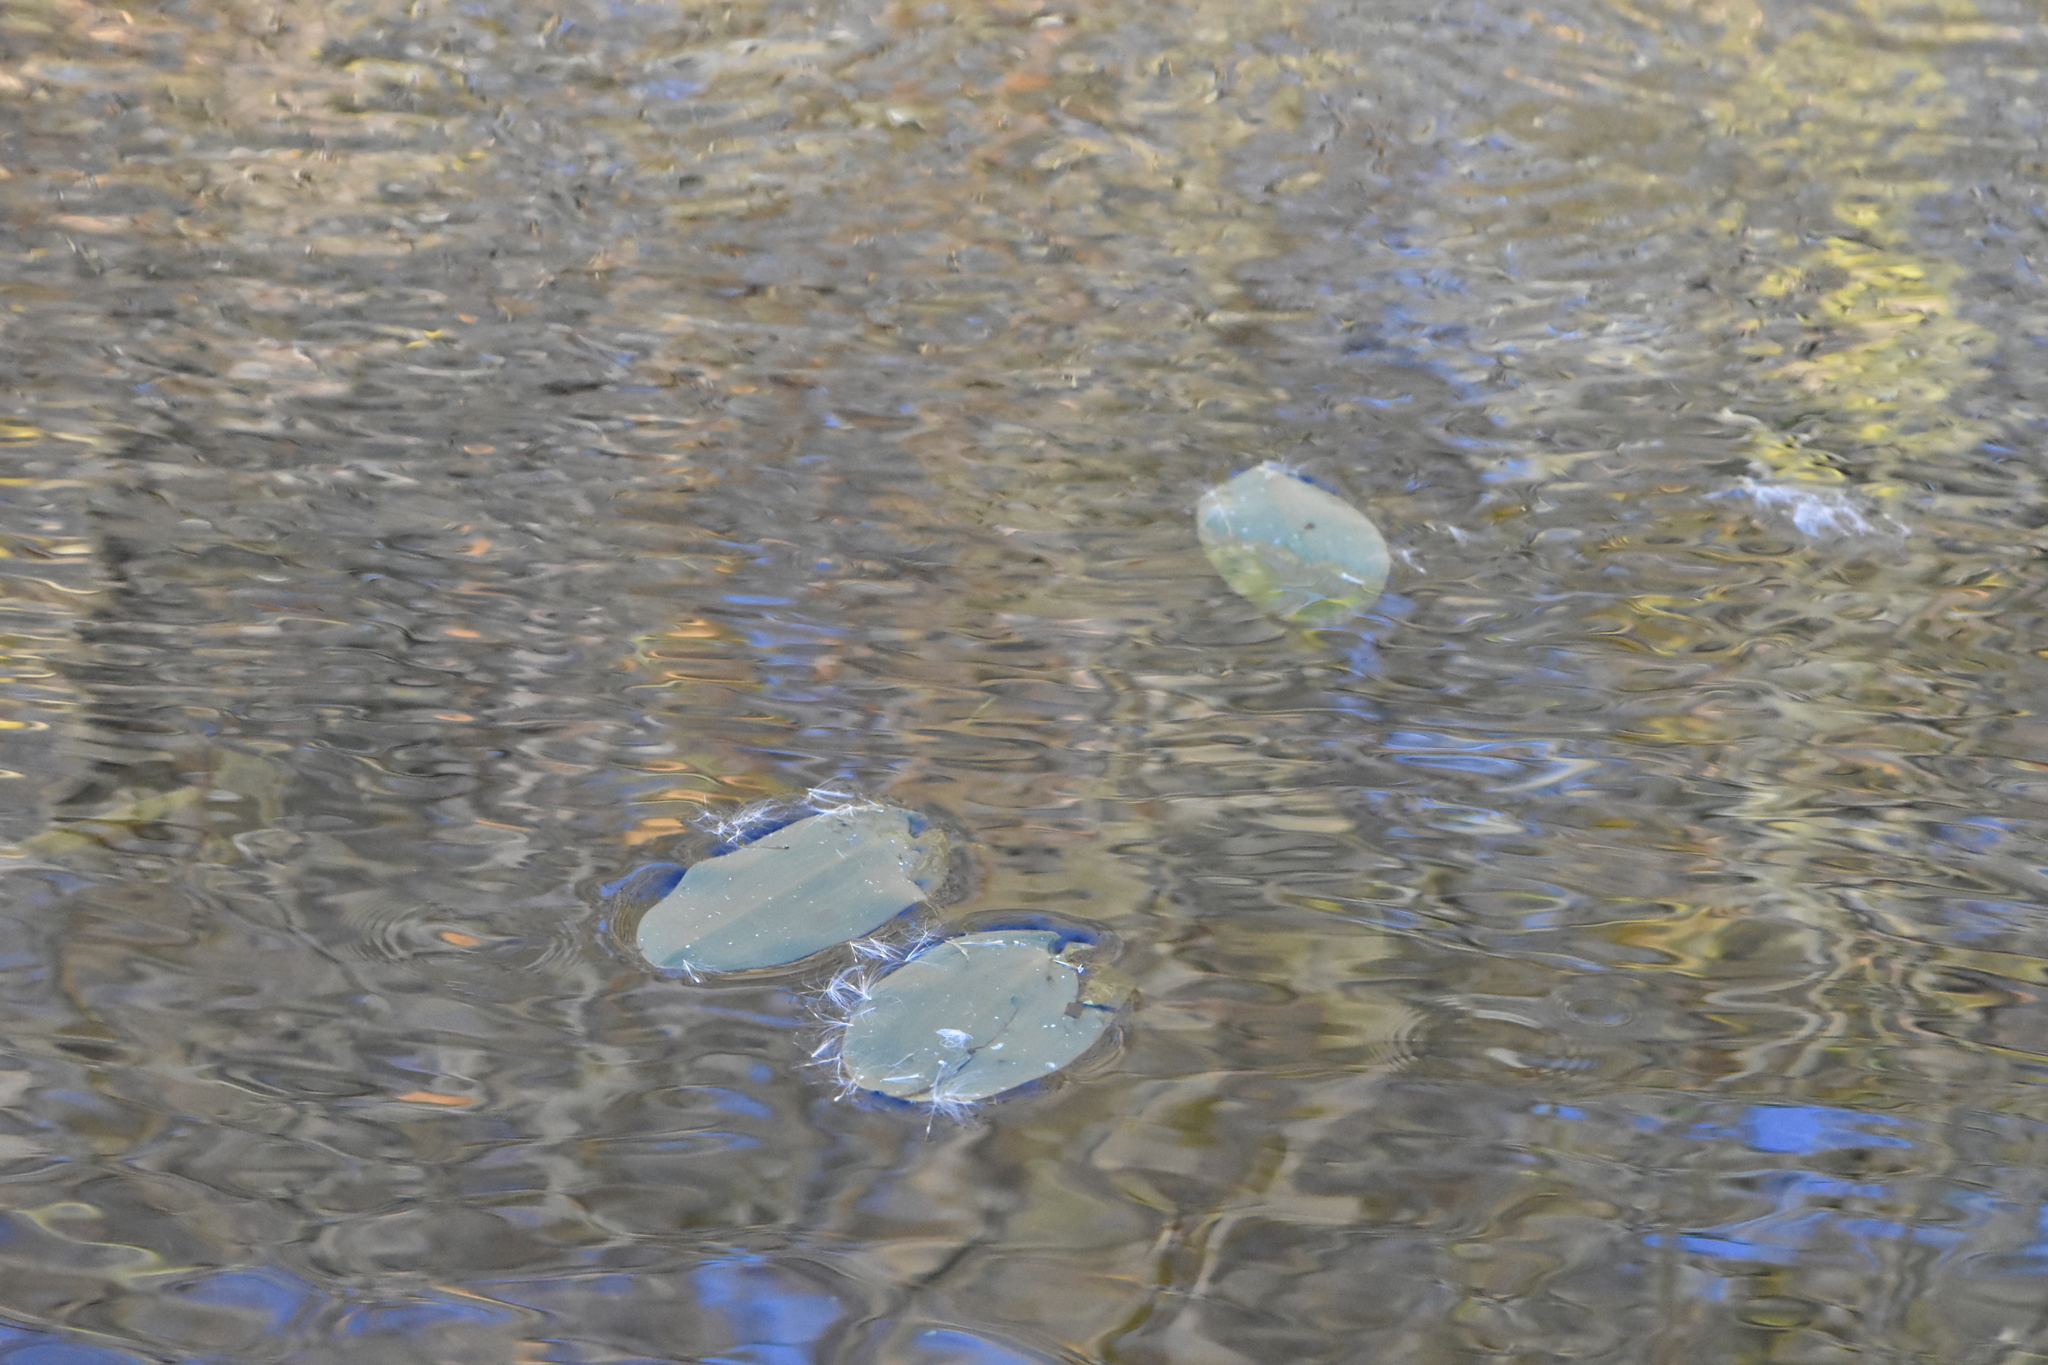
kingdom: Plantae
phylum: Tracheophyta
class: Liliopsida
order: Alismatales
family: Potamogetonaceae
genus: Potamogeton
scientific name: Potamogeton natans
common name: Broad-leaved pondweed
